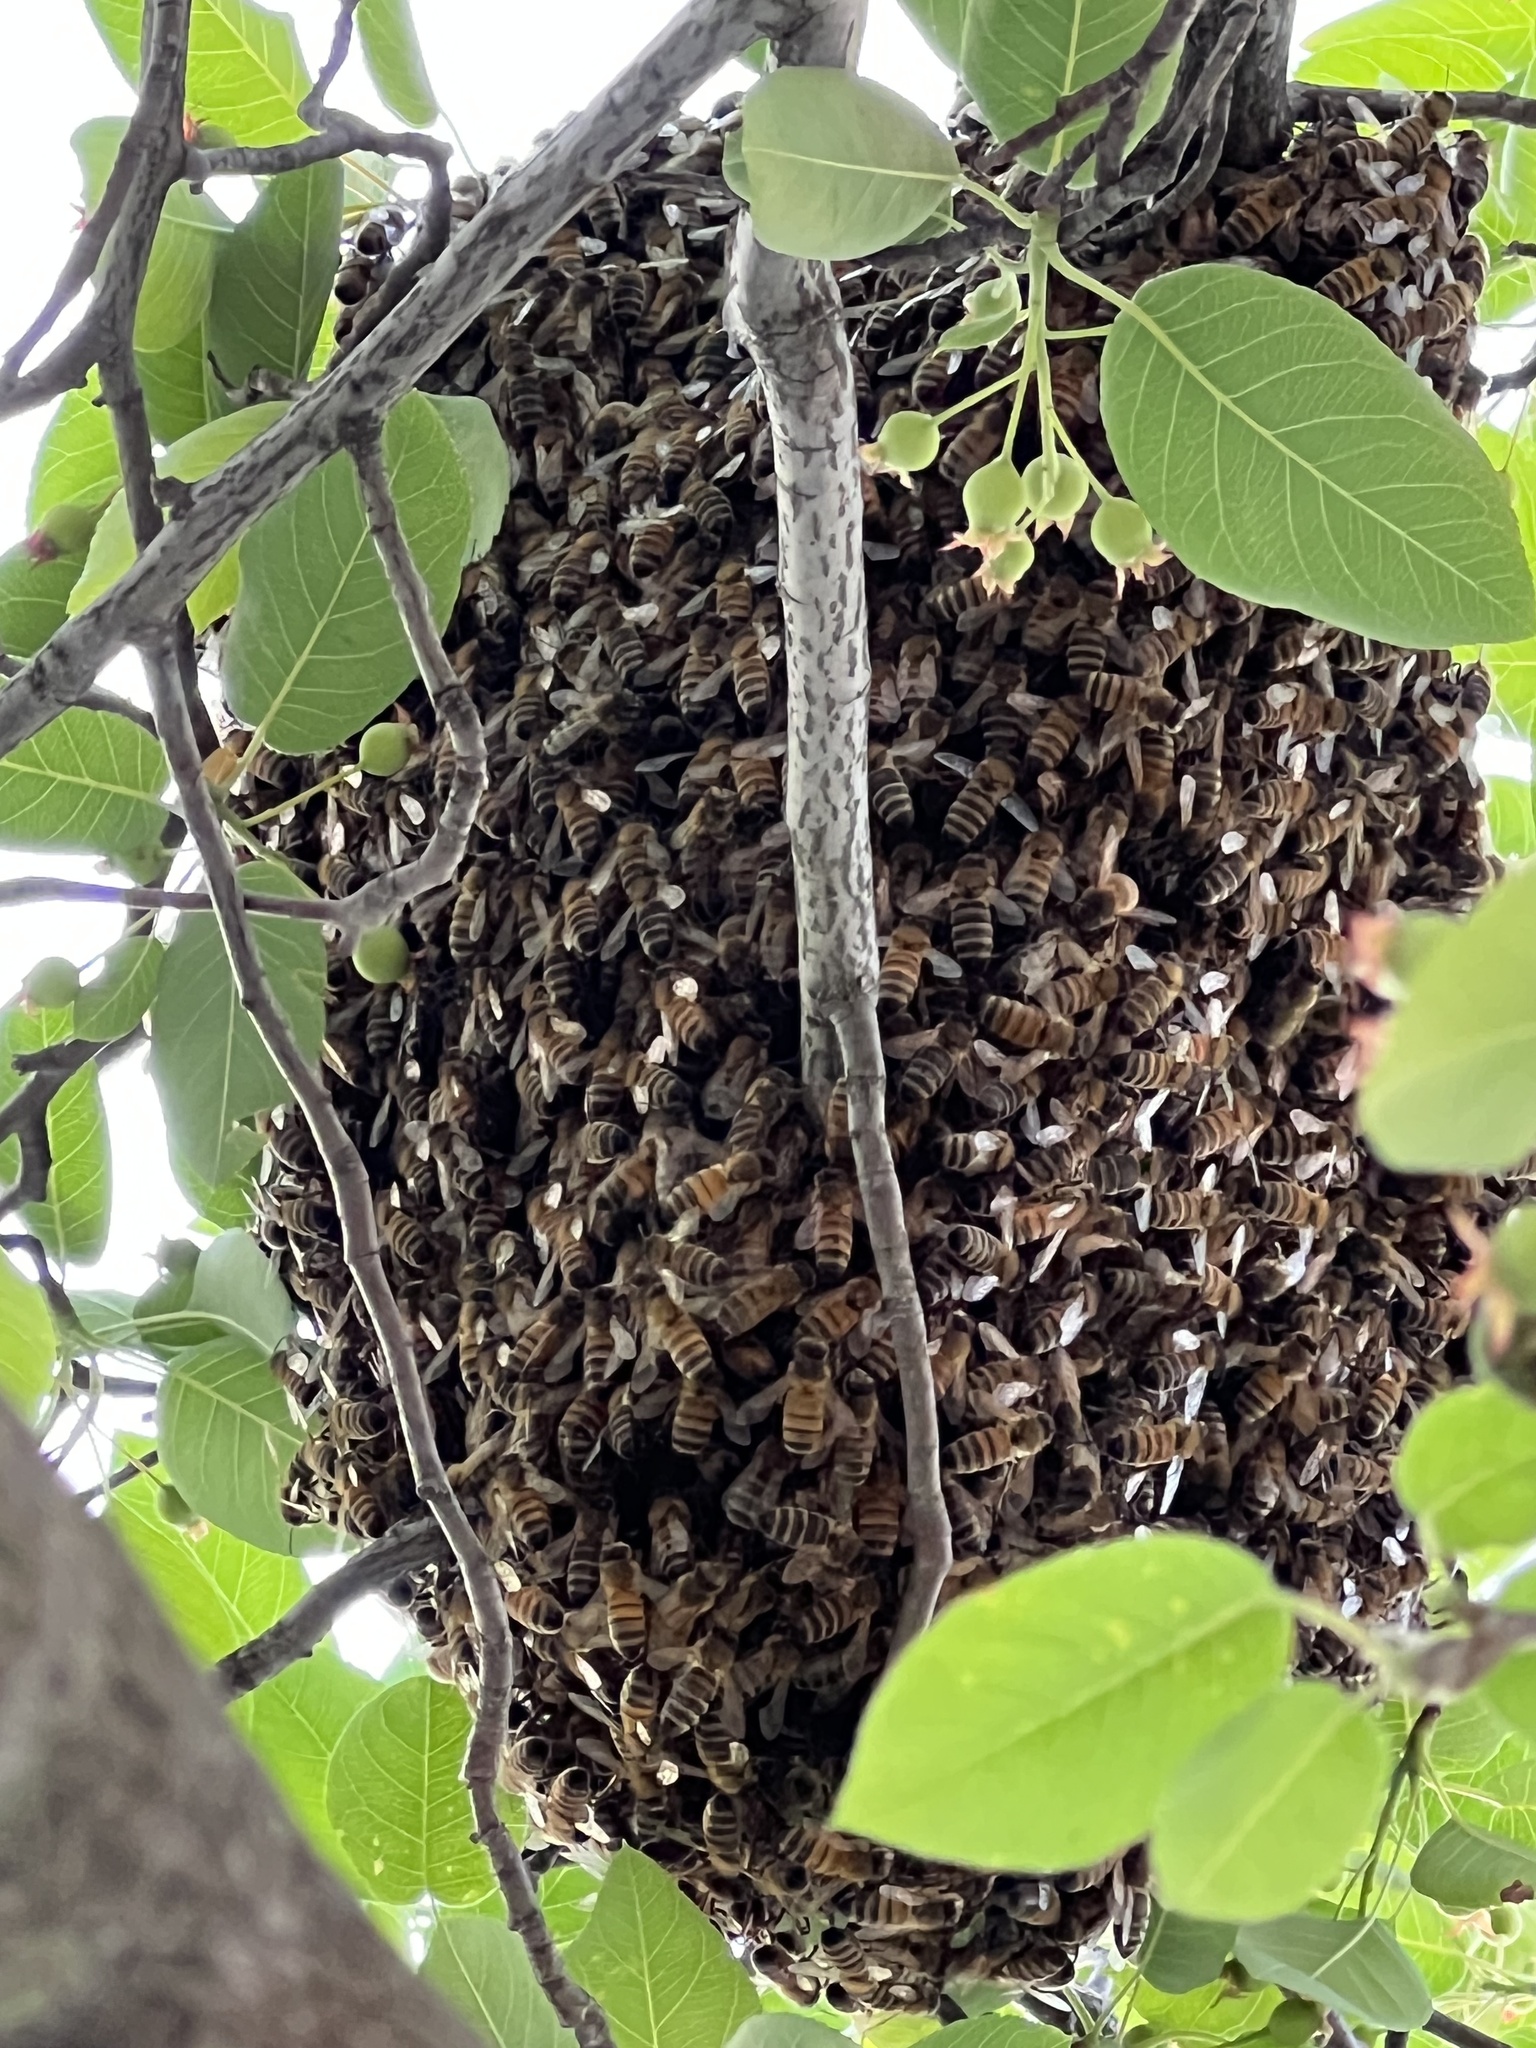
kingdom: Animalia
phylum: Arthropoda
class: Insecta
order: Hymenoptera
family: Apidae
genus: Apis
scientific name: Apis mellifera
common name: Honey bee
